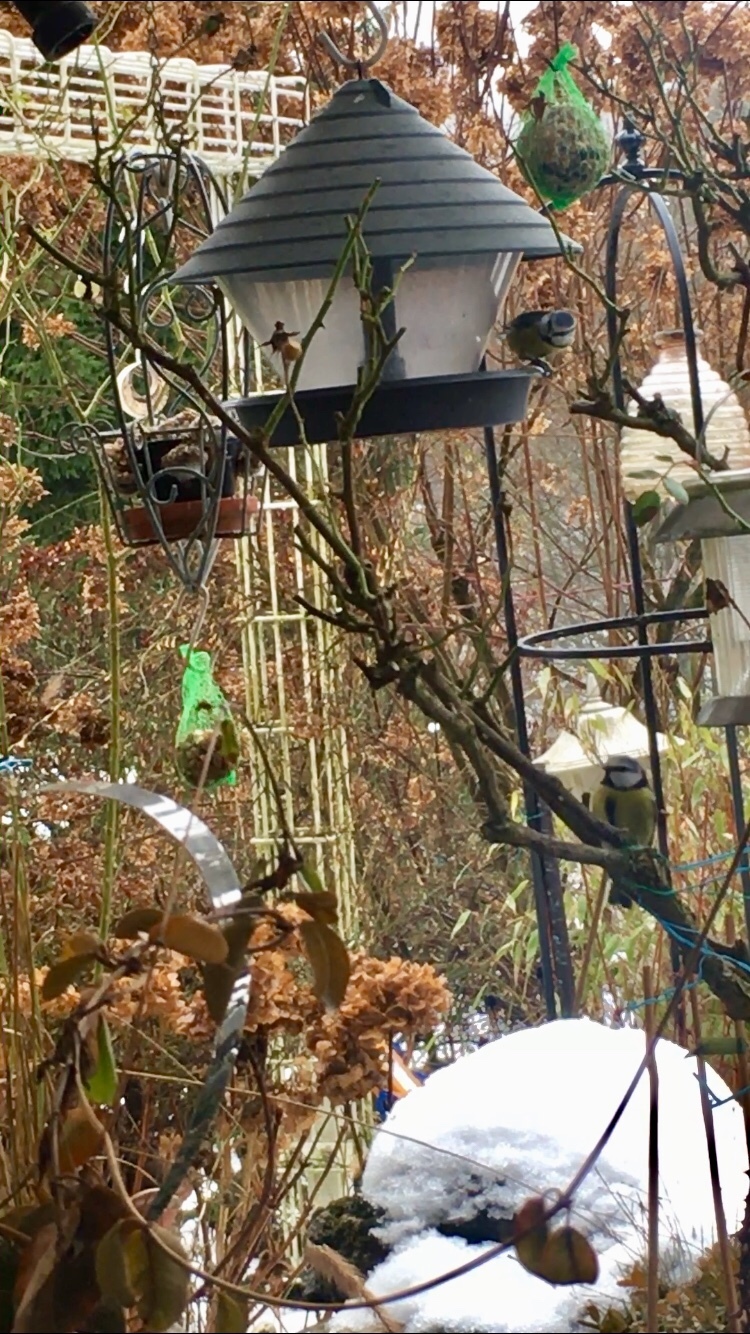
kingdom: Animalia
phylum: Chordata
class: Aves
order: Passeriformes
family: Paridae
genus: Cyanistes
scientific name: Cyanistes caeruleus
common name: Eurasian blue tit
